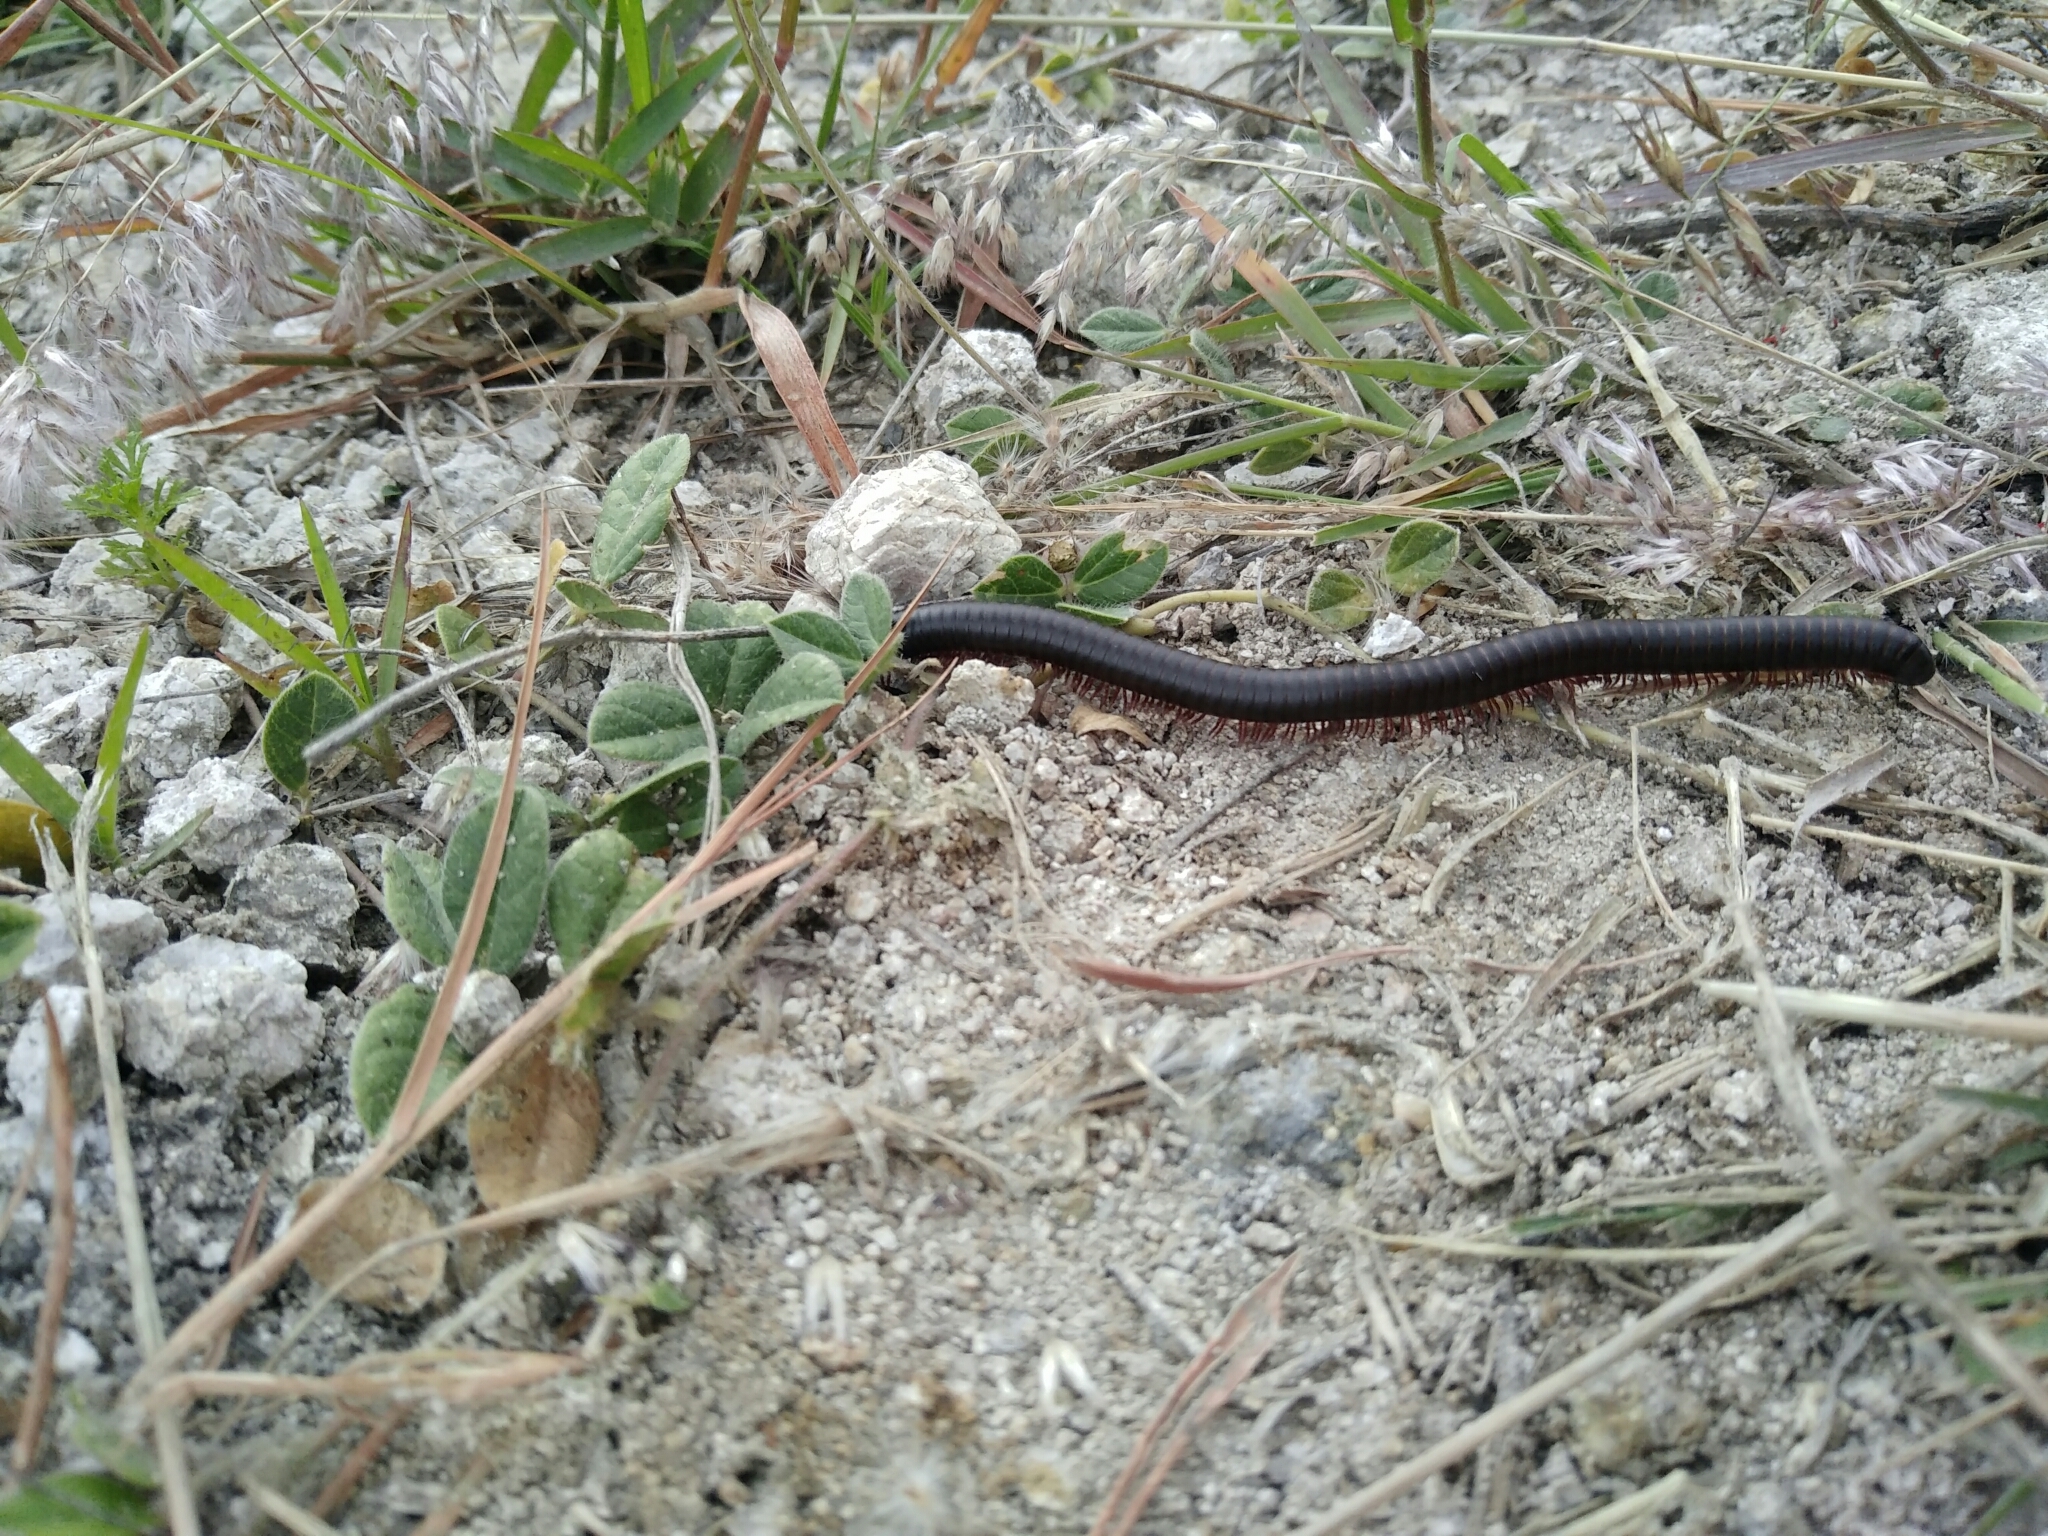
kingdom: Animalia
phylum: Arthropoda
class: Diplopoda
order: Spirostreptida
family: Spirostreptidae
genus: Orthoporus
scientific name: Orthoporus texicolens
